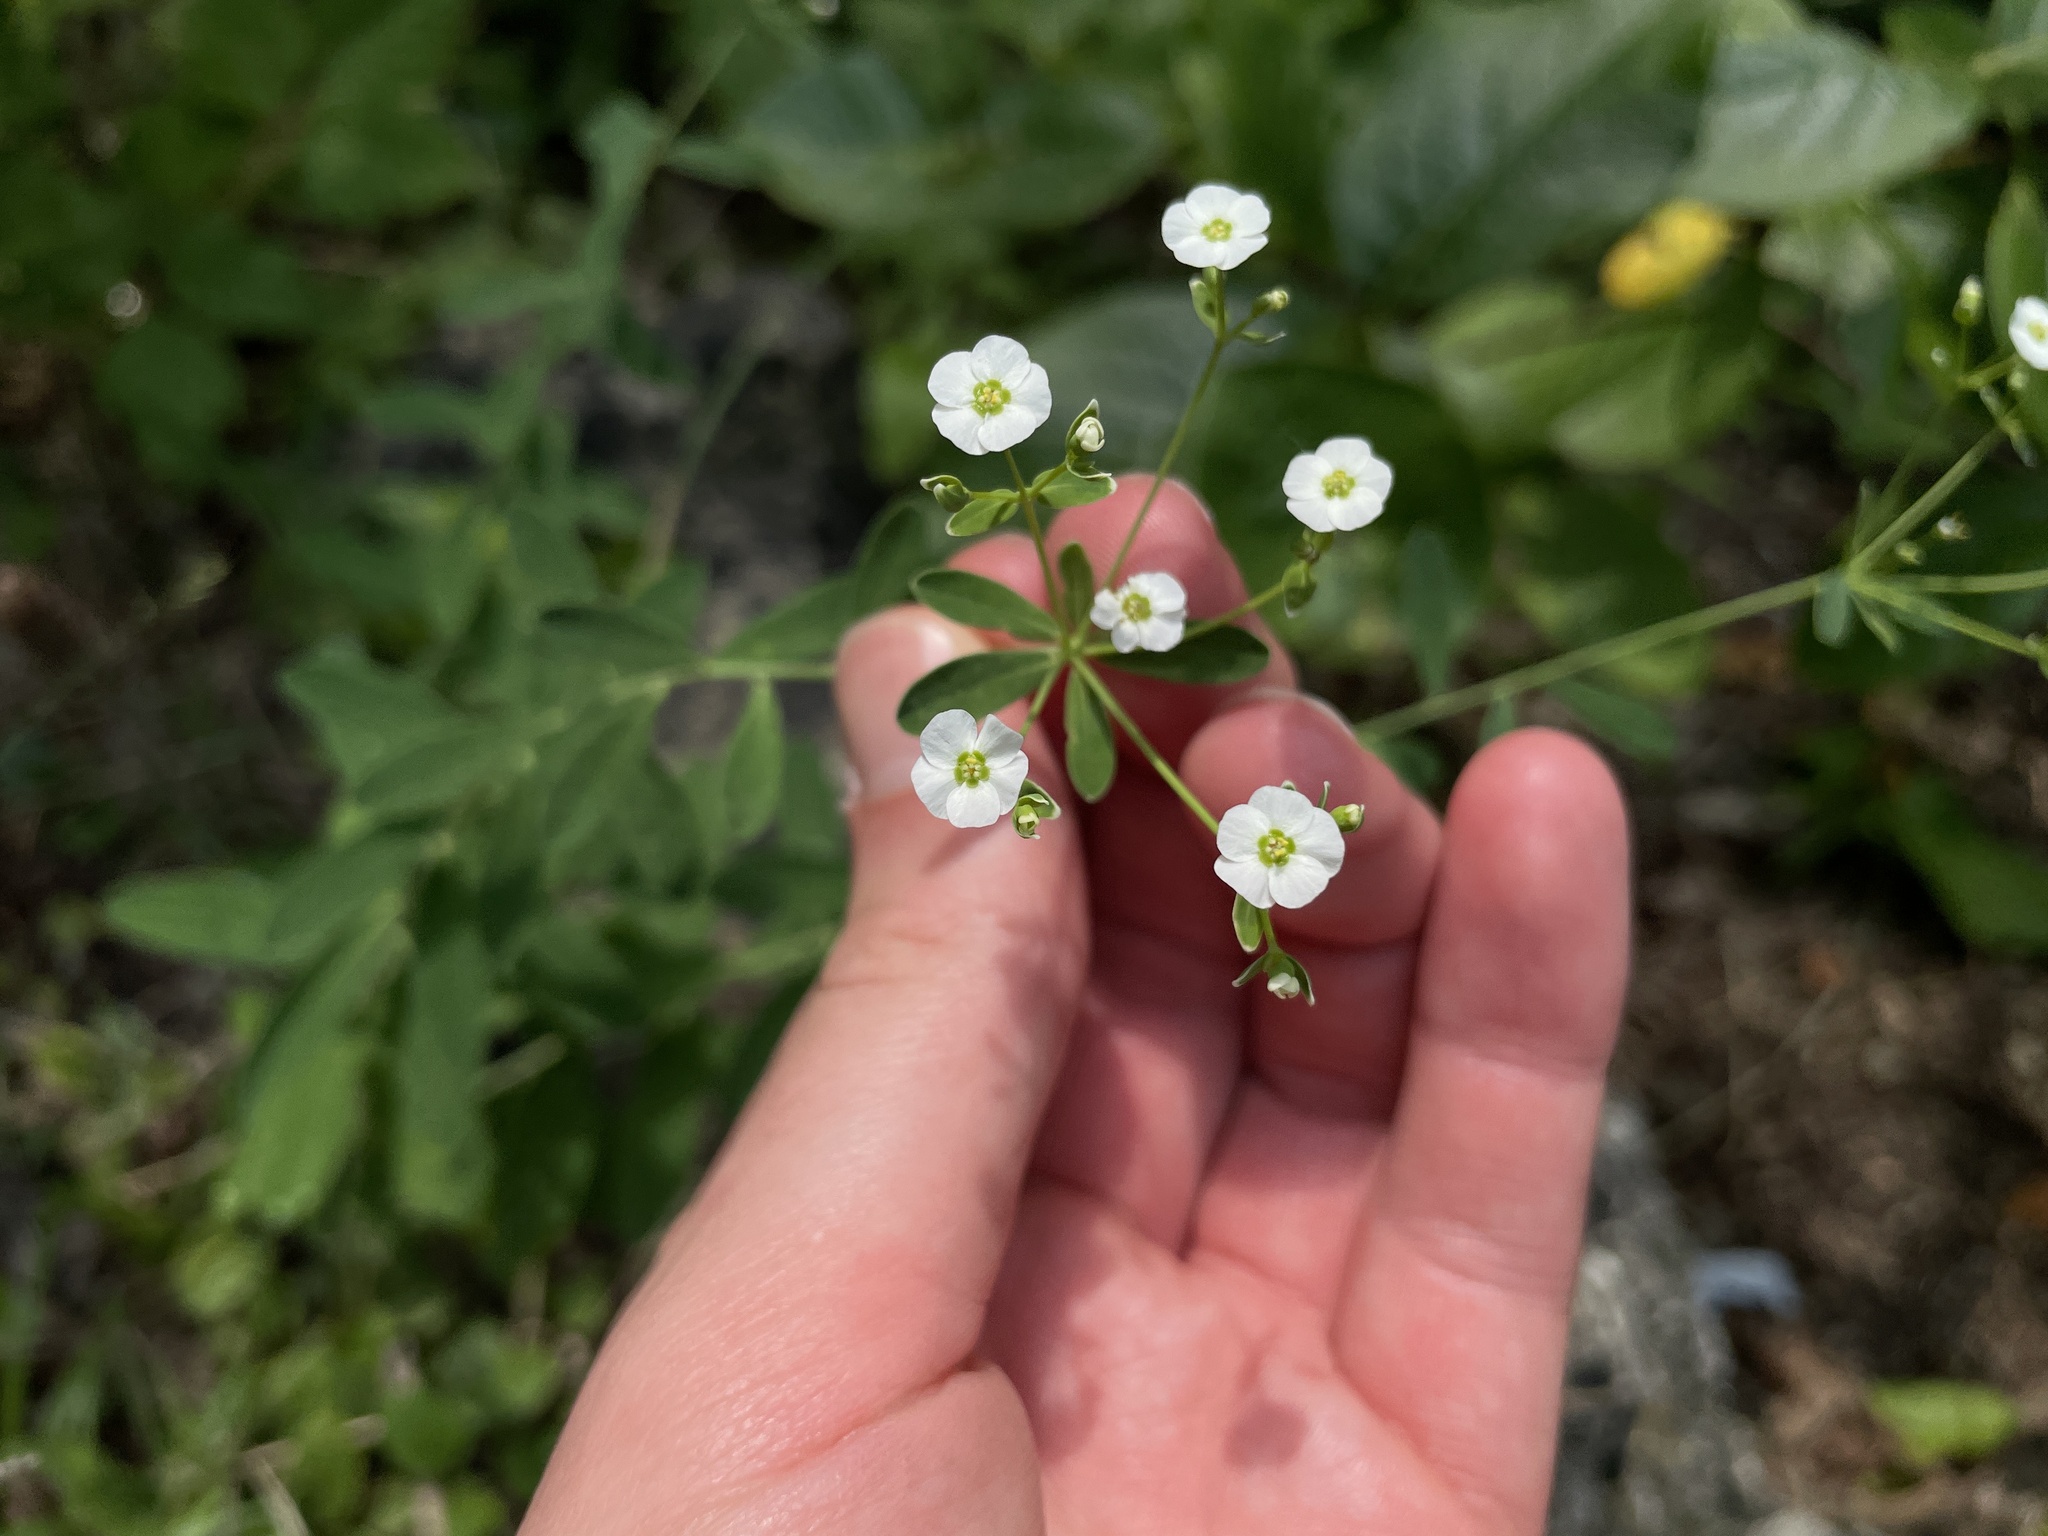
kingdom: Plantae
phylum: Tracheophyta
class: Magnoliopsida
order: Malpighiales
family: Euphorbiaceae
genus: Euphorbia
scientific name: Euphorbia corollata
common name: Flowering spurge
